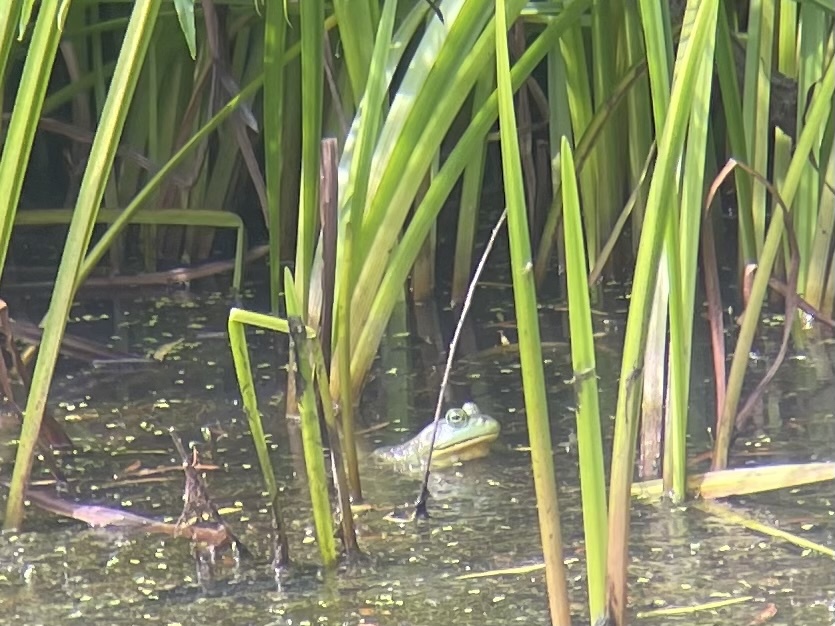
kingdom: Animalia
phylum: Chordata
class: Amphibia
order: Anura
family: Ranidae
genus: Lithobates
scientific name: Lithobates catesbeianus
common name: American bullfrog
